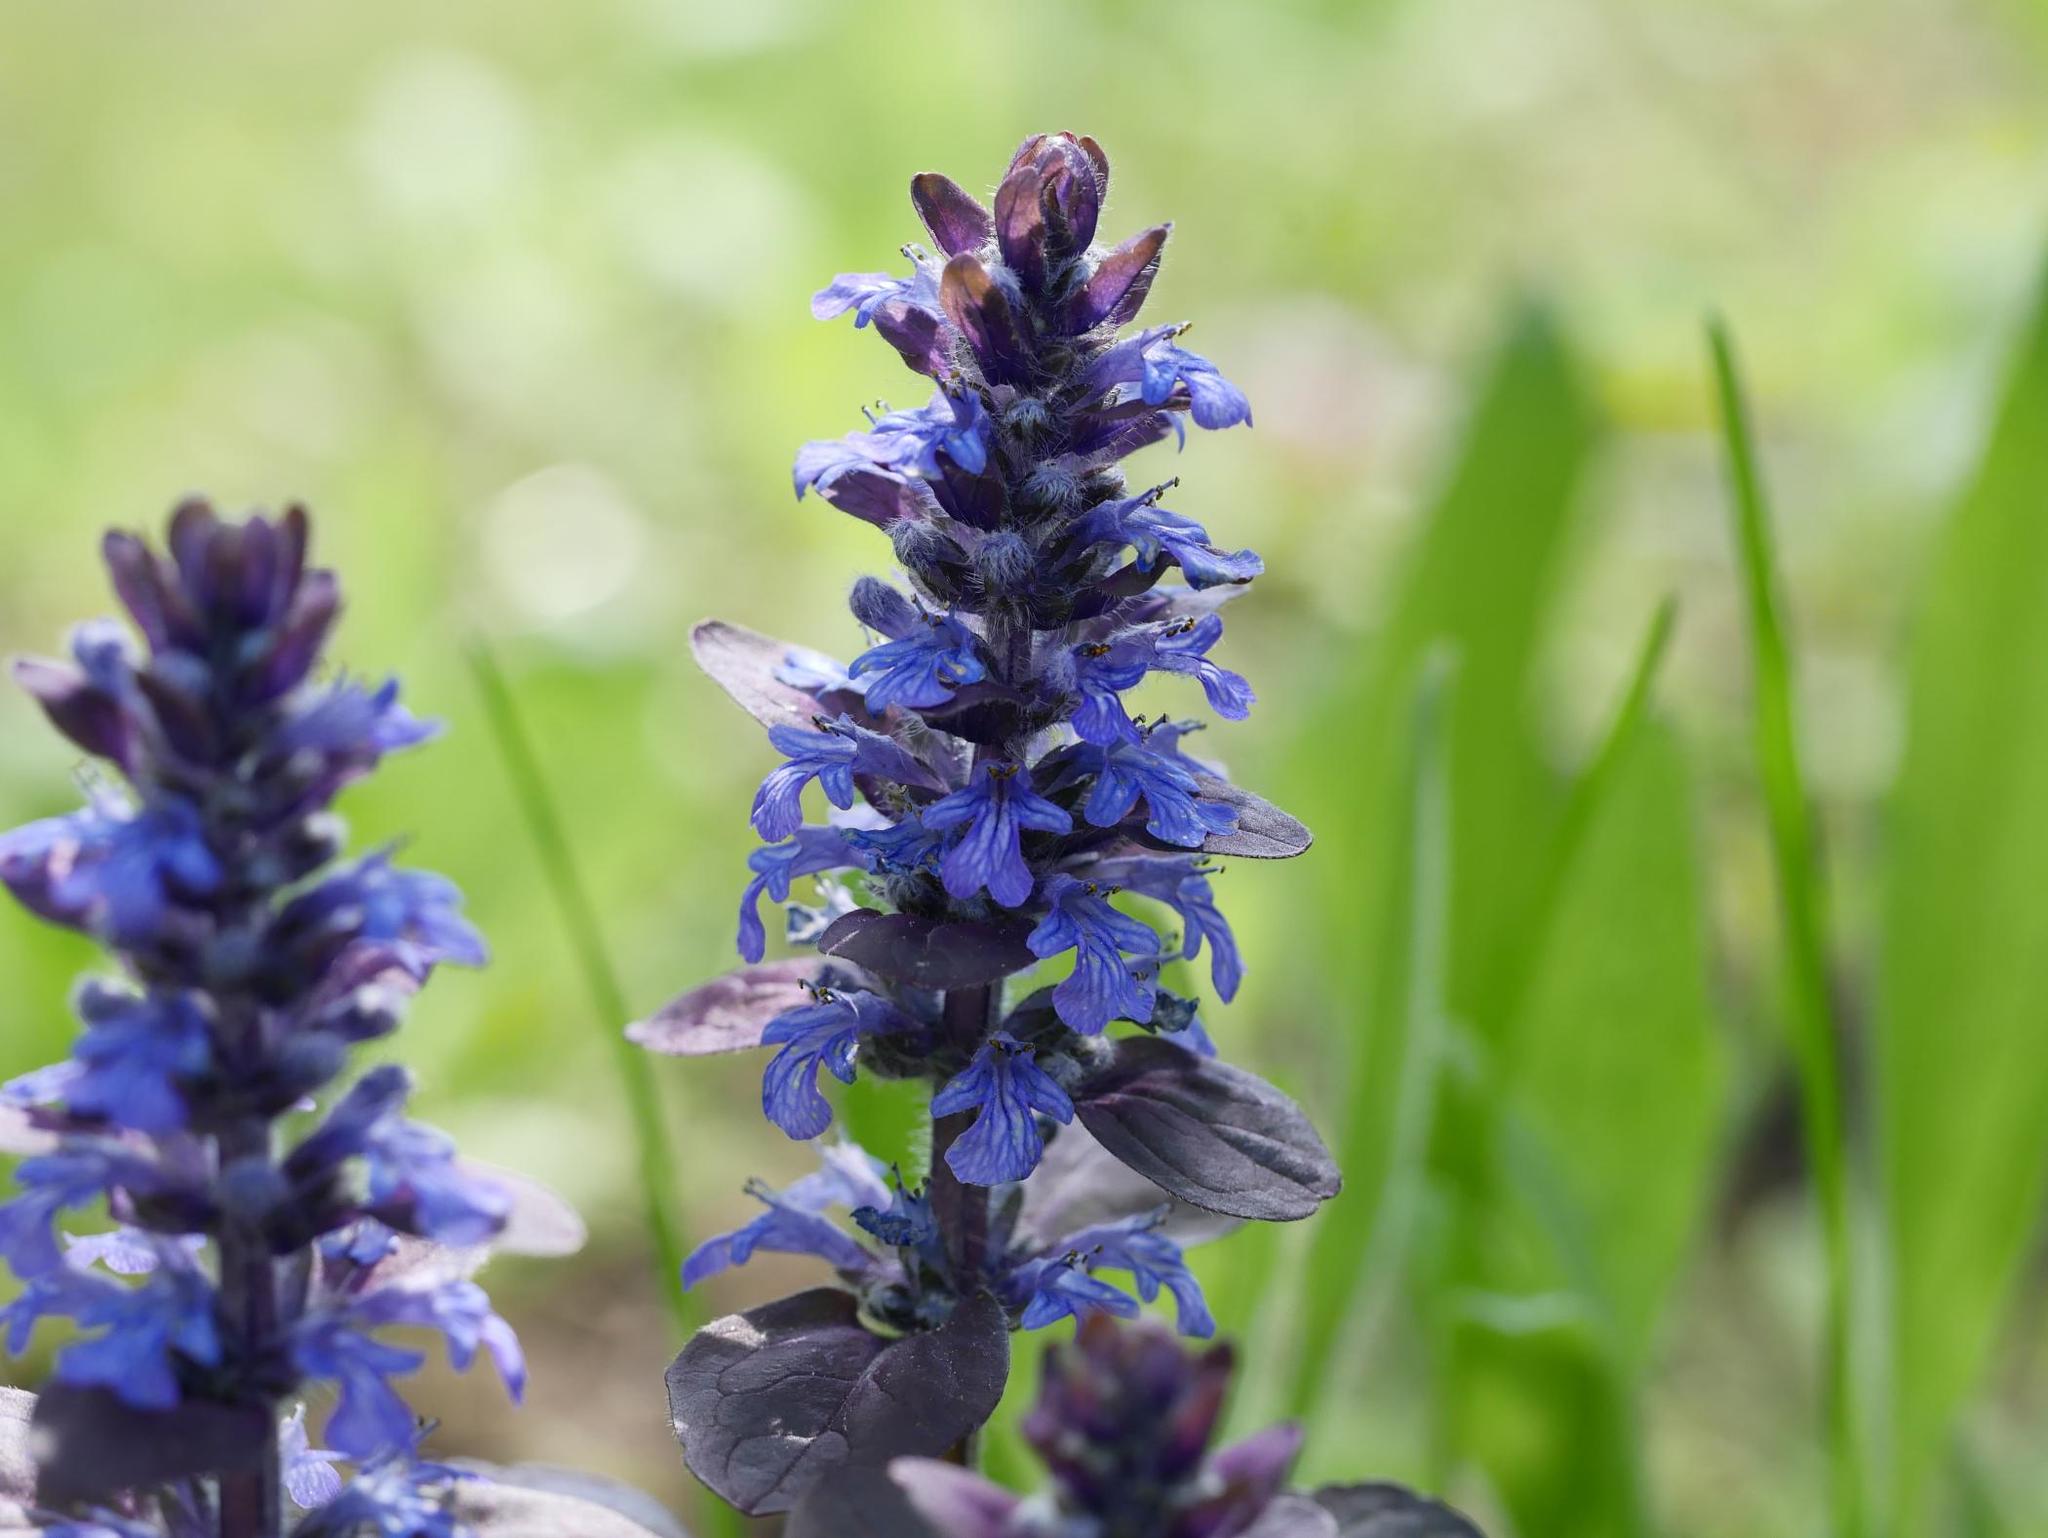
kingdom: Plantae
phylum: Tracheophyta
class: Magnoliopsida
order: Lamiales
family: Lamiaceae
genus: Ajuga
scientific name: Ajuga reptans
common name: Bugle
